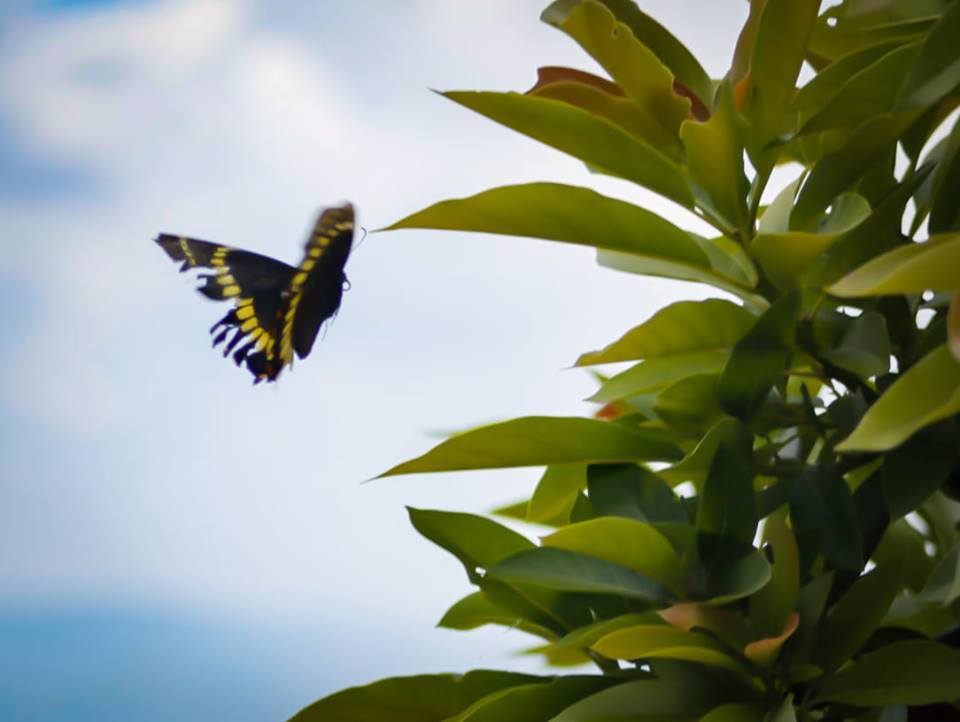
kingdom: Animalia
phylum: Arthropoda
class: Insecta
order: Lepidoptera
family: Papilionidae
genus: Papilio
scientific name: Papilio scamander
